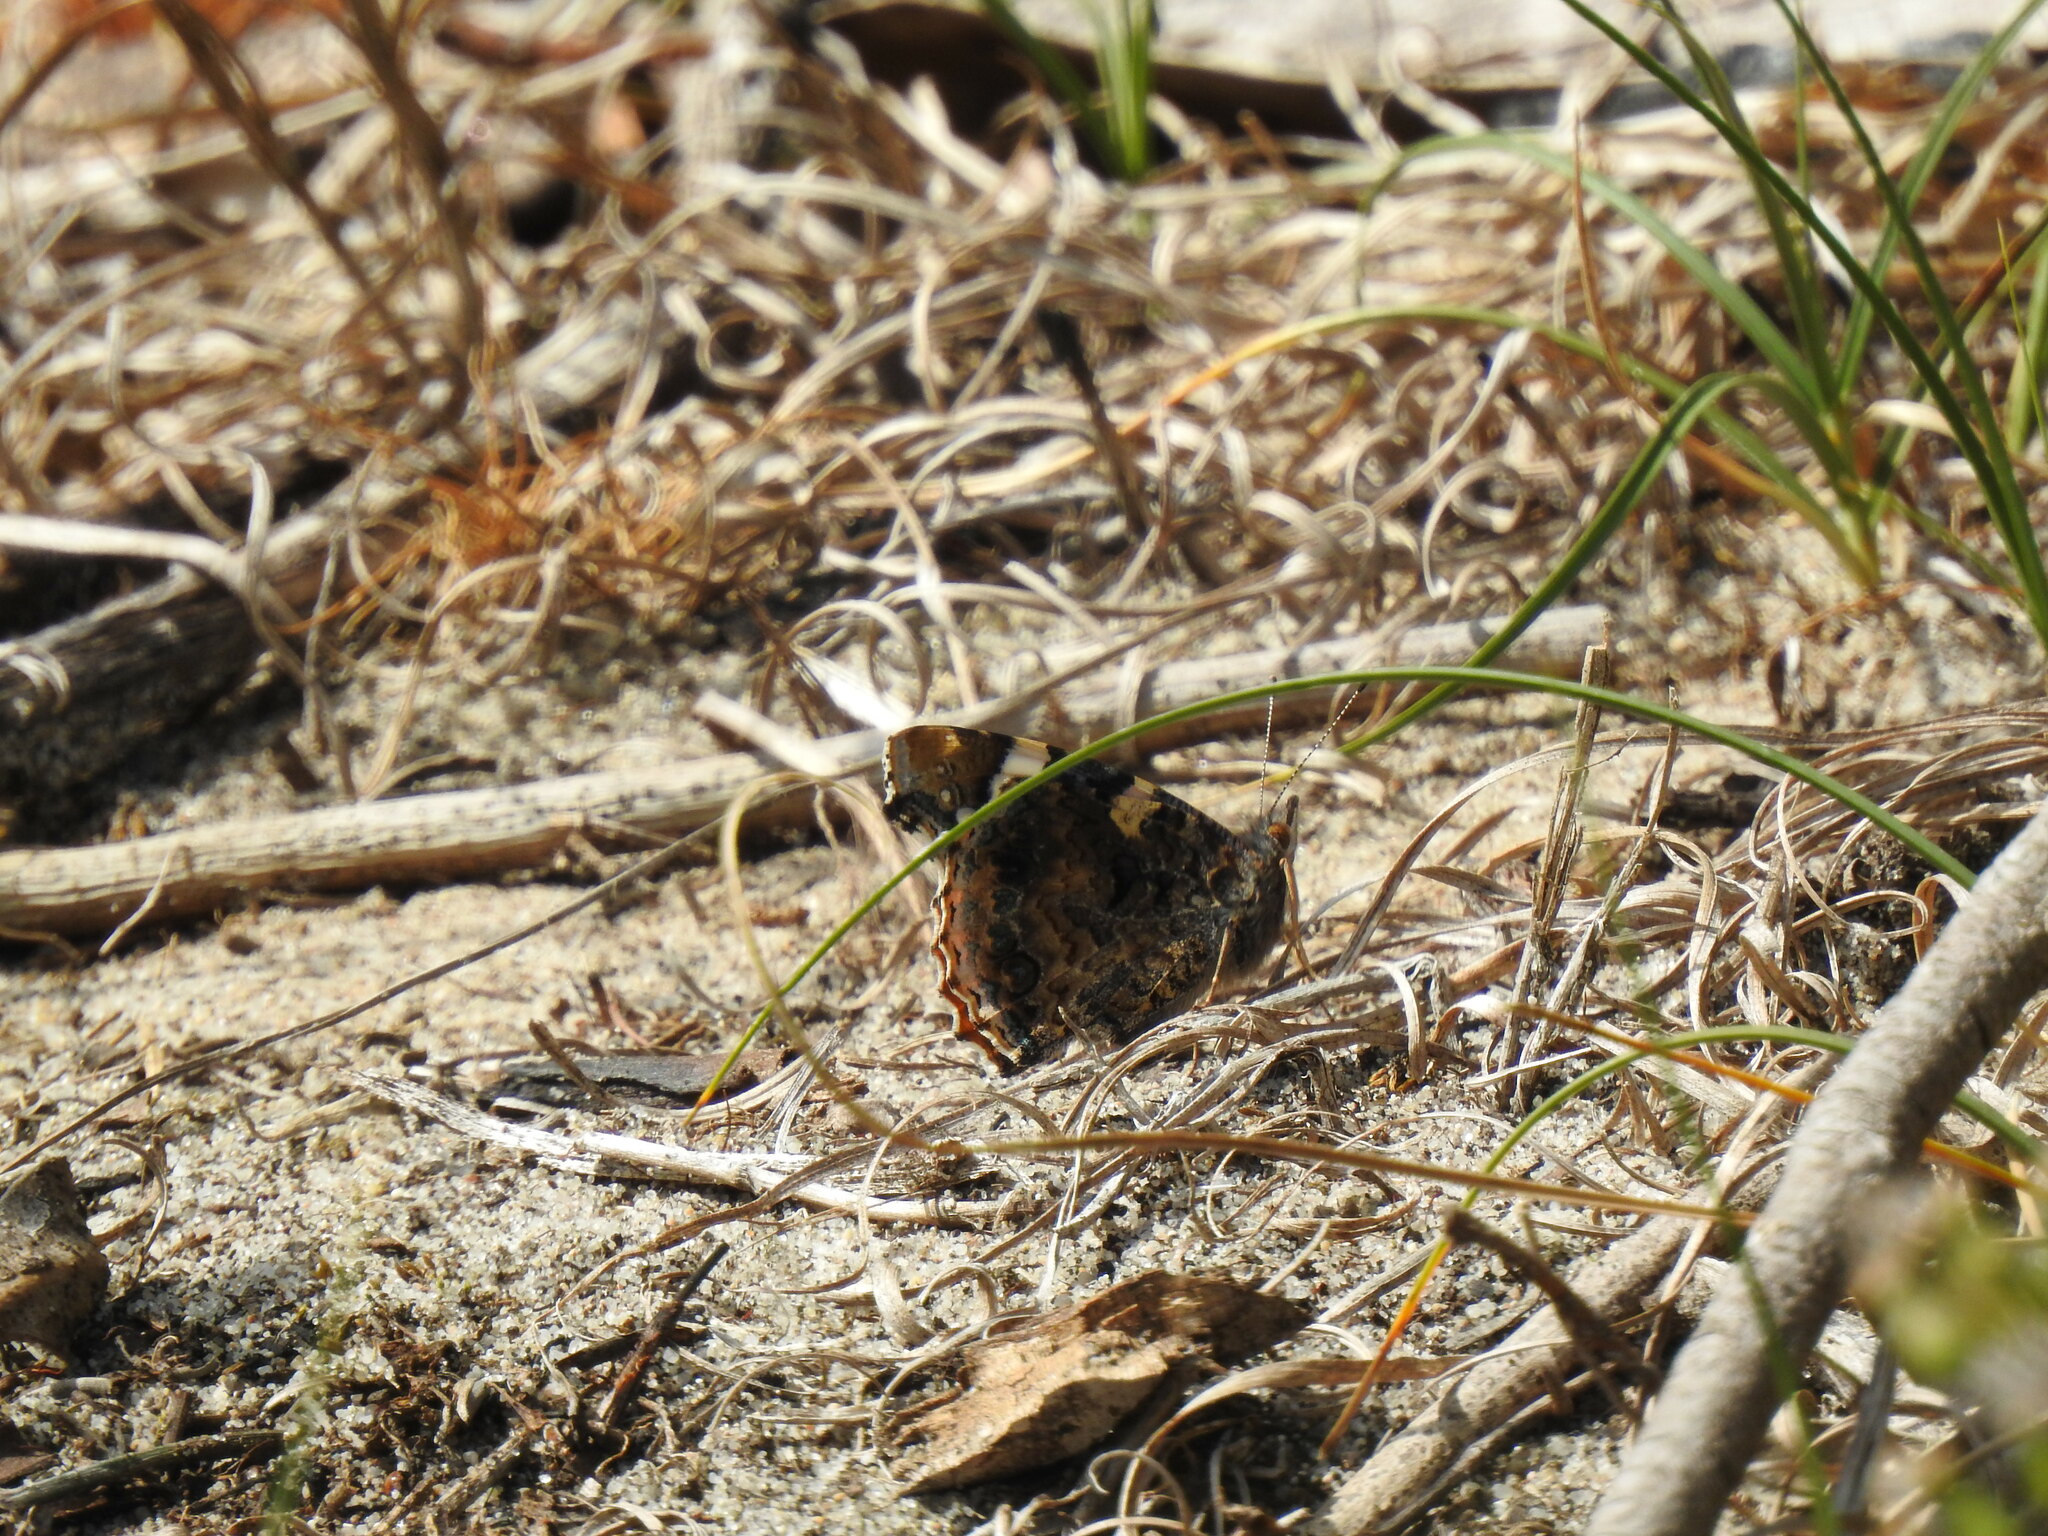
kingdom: Animalia
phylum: Arthropoda
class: Insecta
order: Lepidoptera
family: Nymphalidae
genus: Vanessa
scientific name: Vanessa atalanta
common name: Red admiral
